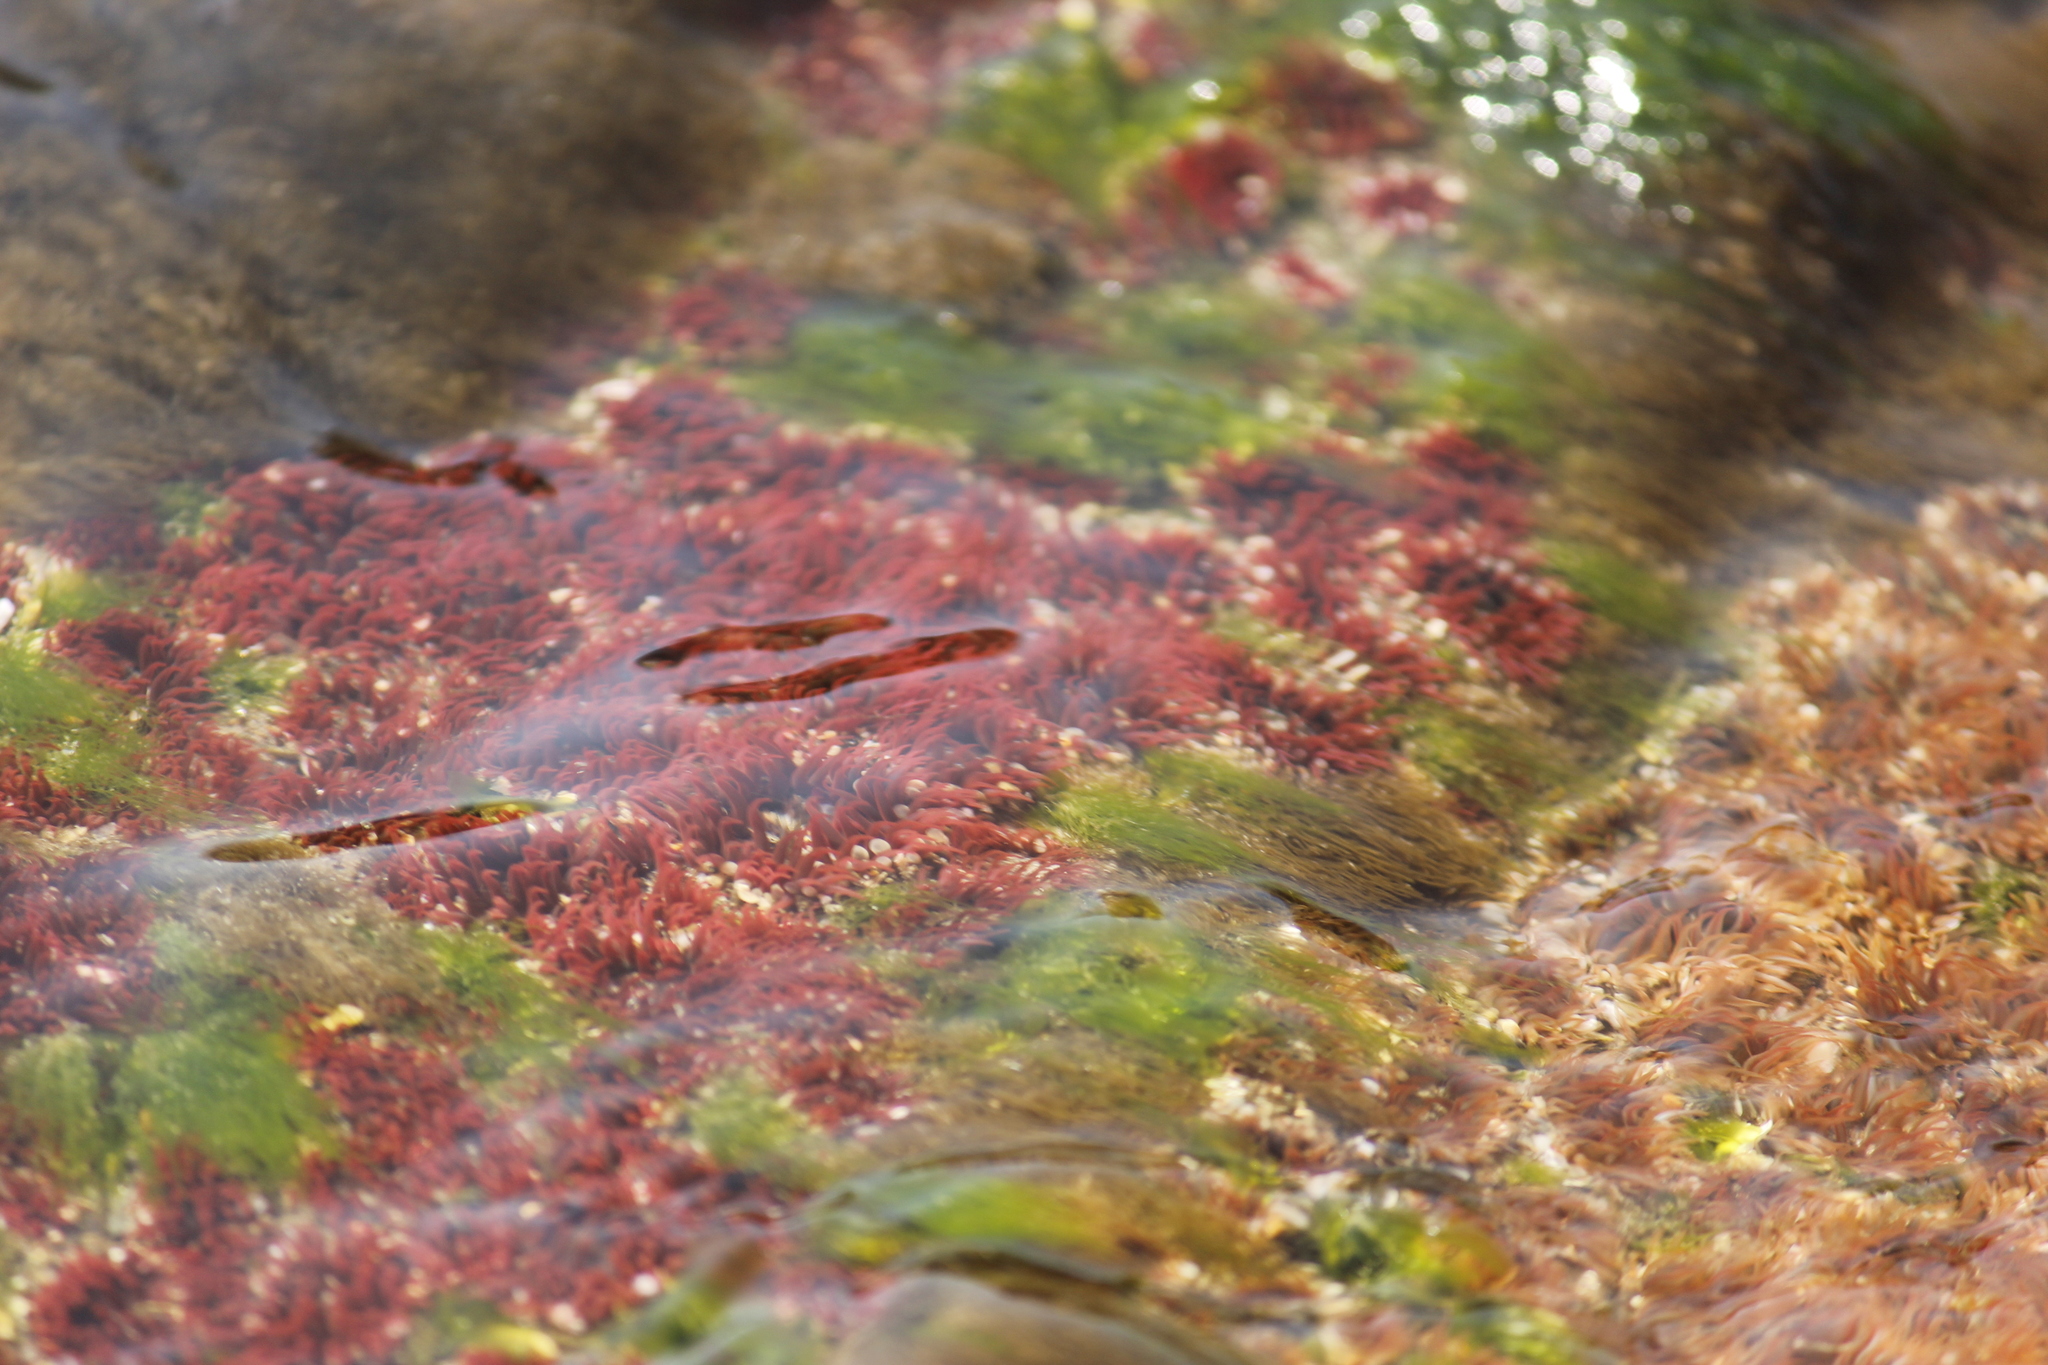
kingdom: Animalia
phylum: Cnidaria
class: Anthozoa
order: Actiniaria
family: Actiniidae
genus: Anthopleura
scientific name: Anthopleura mariscali
